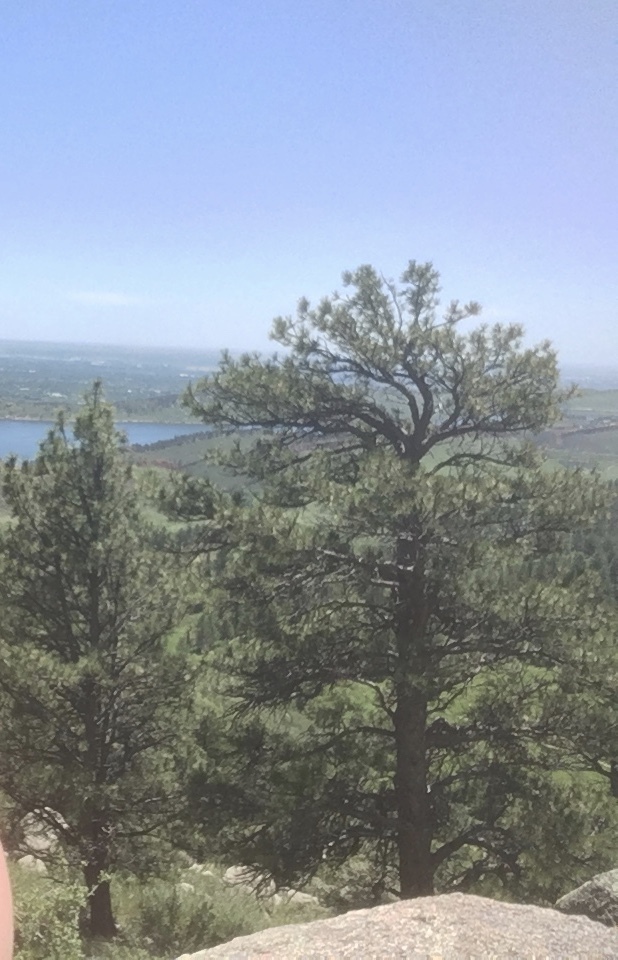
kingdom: Plantae
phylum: Tracheophyta
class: Pinopsida
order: Pinales
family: Pinaceae
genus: Pinus
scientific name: Pinus ponderosa
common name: Western yellow-pine
